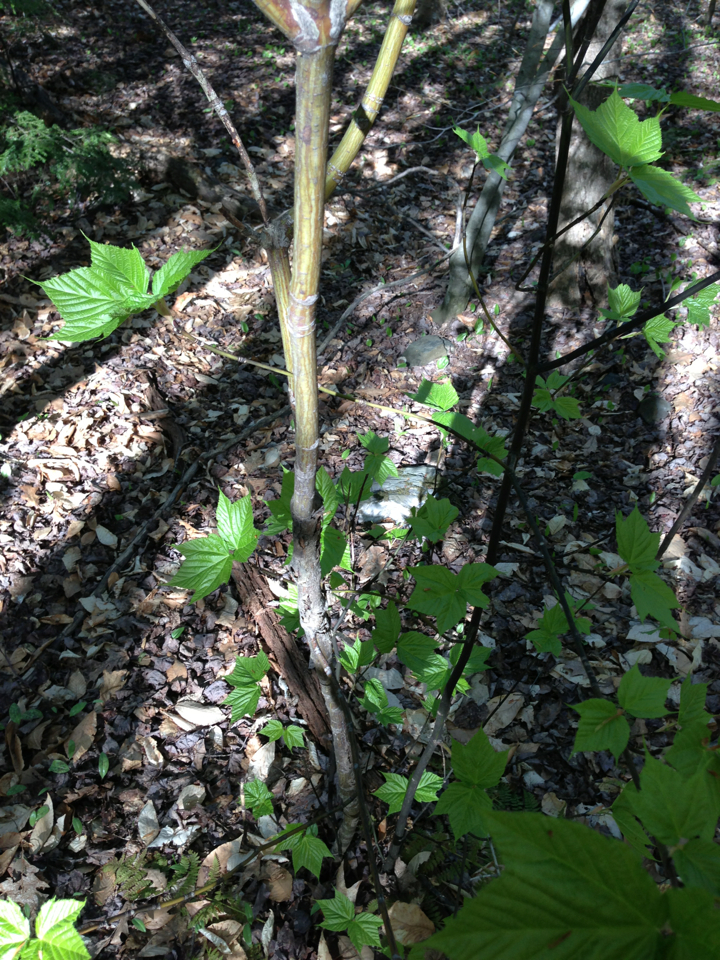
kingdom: Plantae
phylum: Tracheophyta
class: Magnoliopsida
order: Sapindales
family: Sapindaceae
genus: Acer
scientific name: Acer pensylvanicum
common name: Moosewood
